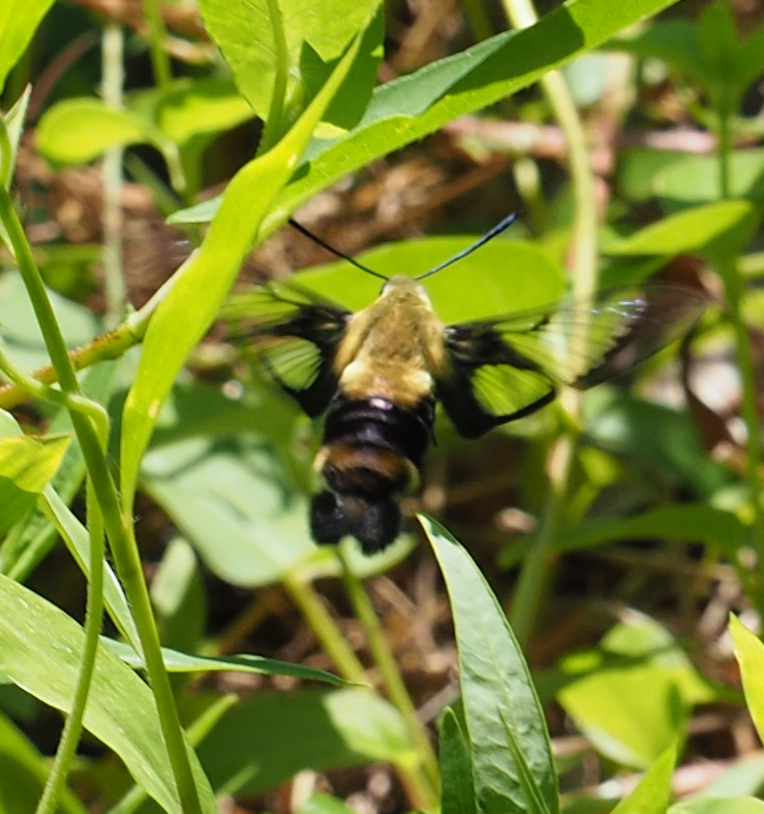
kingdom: Animalia
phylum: Arthropoda
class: Insecta
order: Lepidoptera
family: Sphingidae
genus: Hemaris
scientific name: Hemaris diffinis
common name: Bumblebee moth
